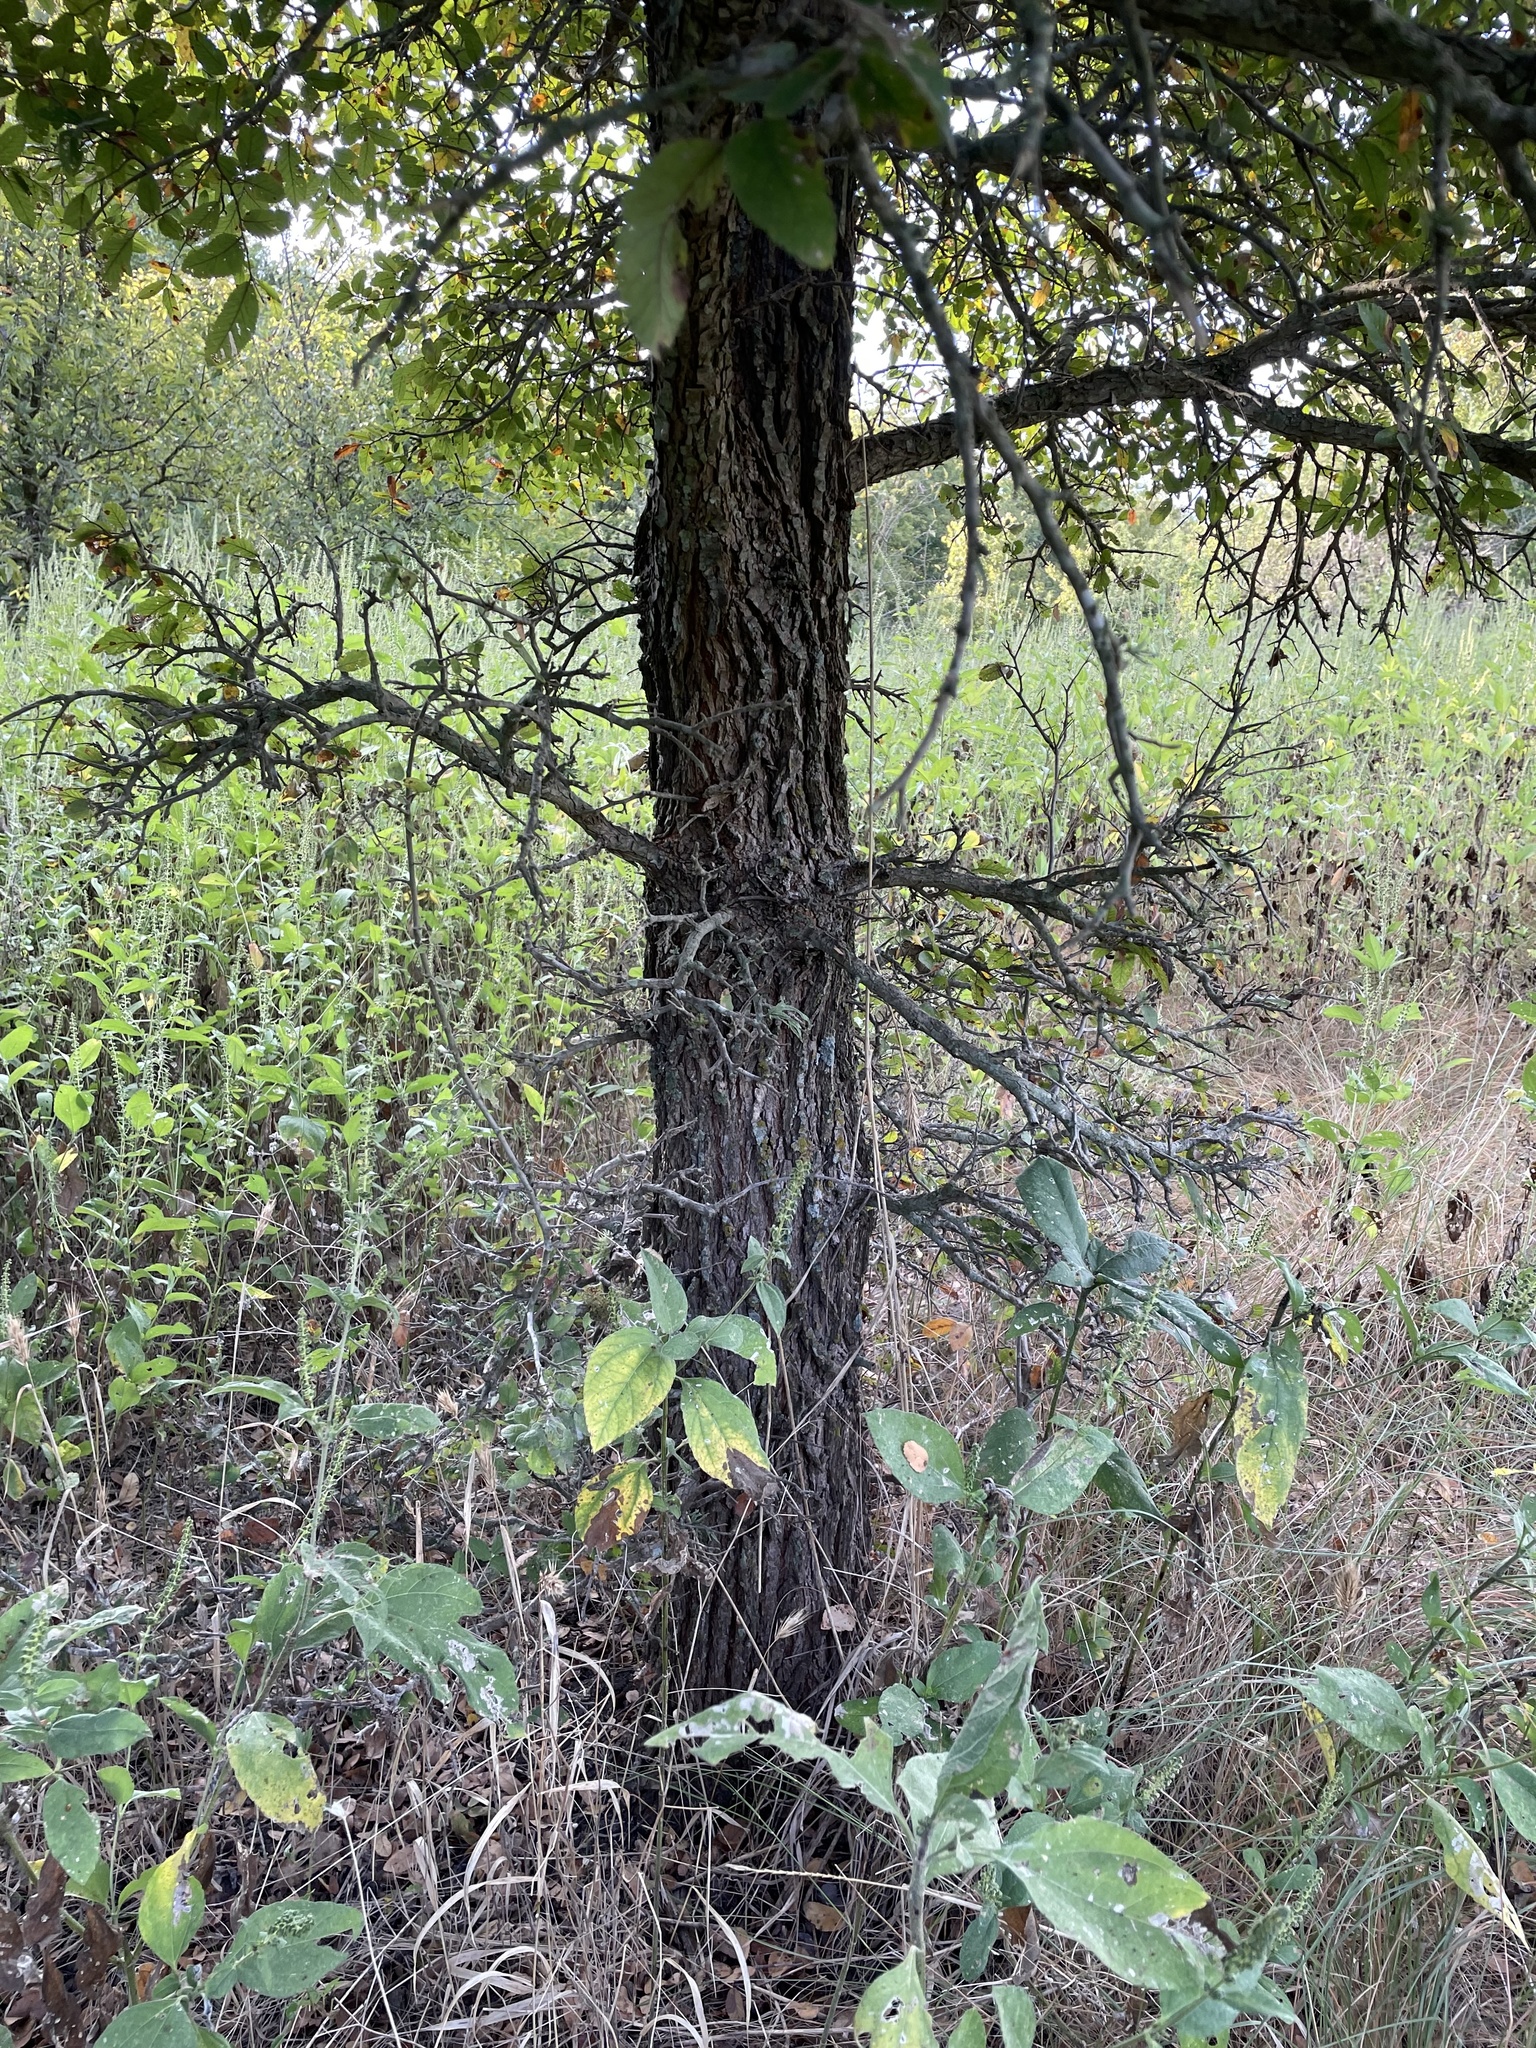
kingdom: Plantae
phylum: Tracheophyta
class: Magnoliopsida
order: Rosales
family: Ulmaceae
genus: Ulmus
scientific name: Ulmus crassifolia
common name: Basket elm
